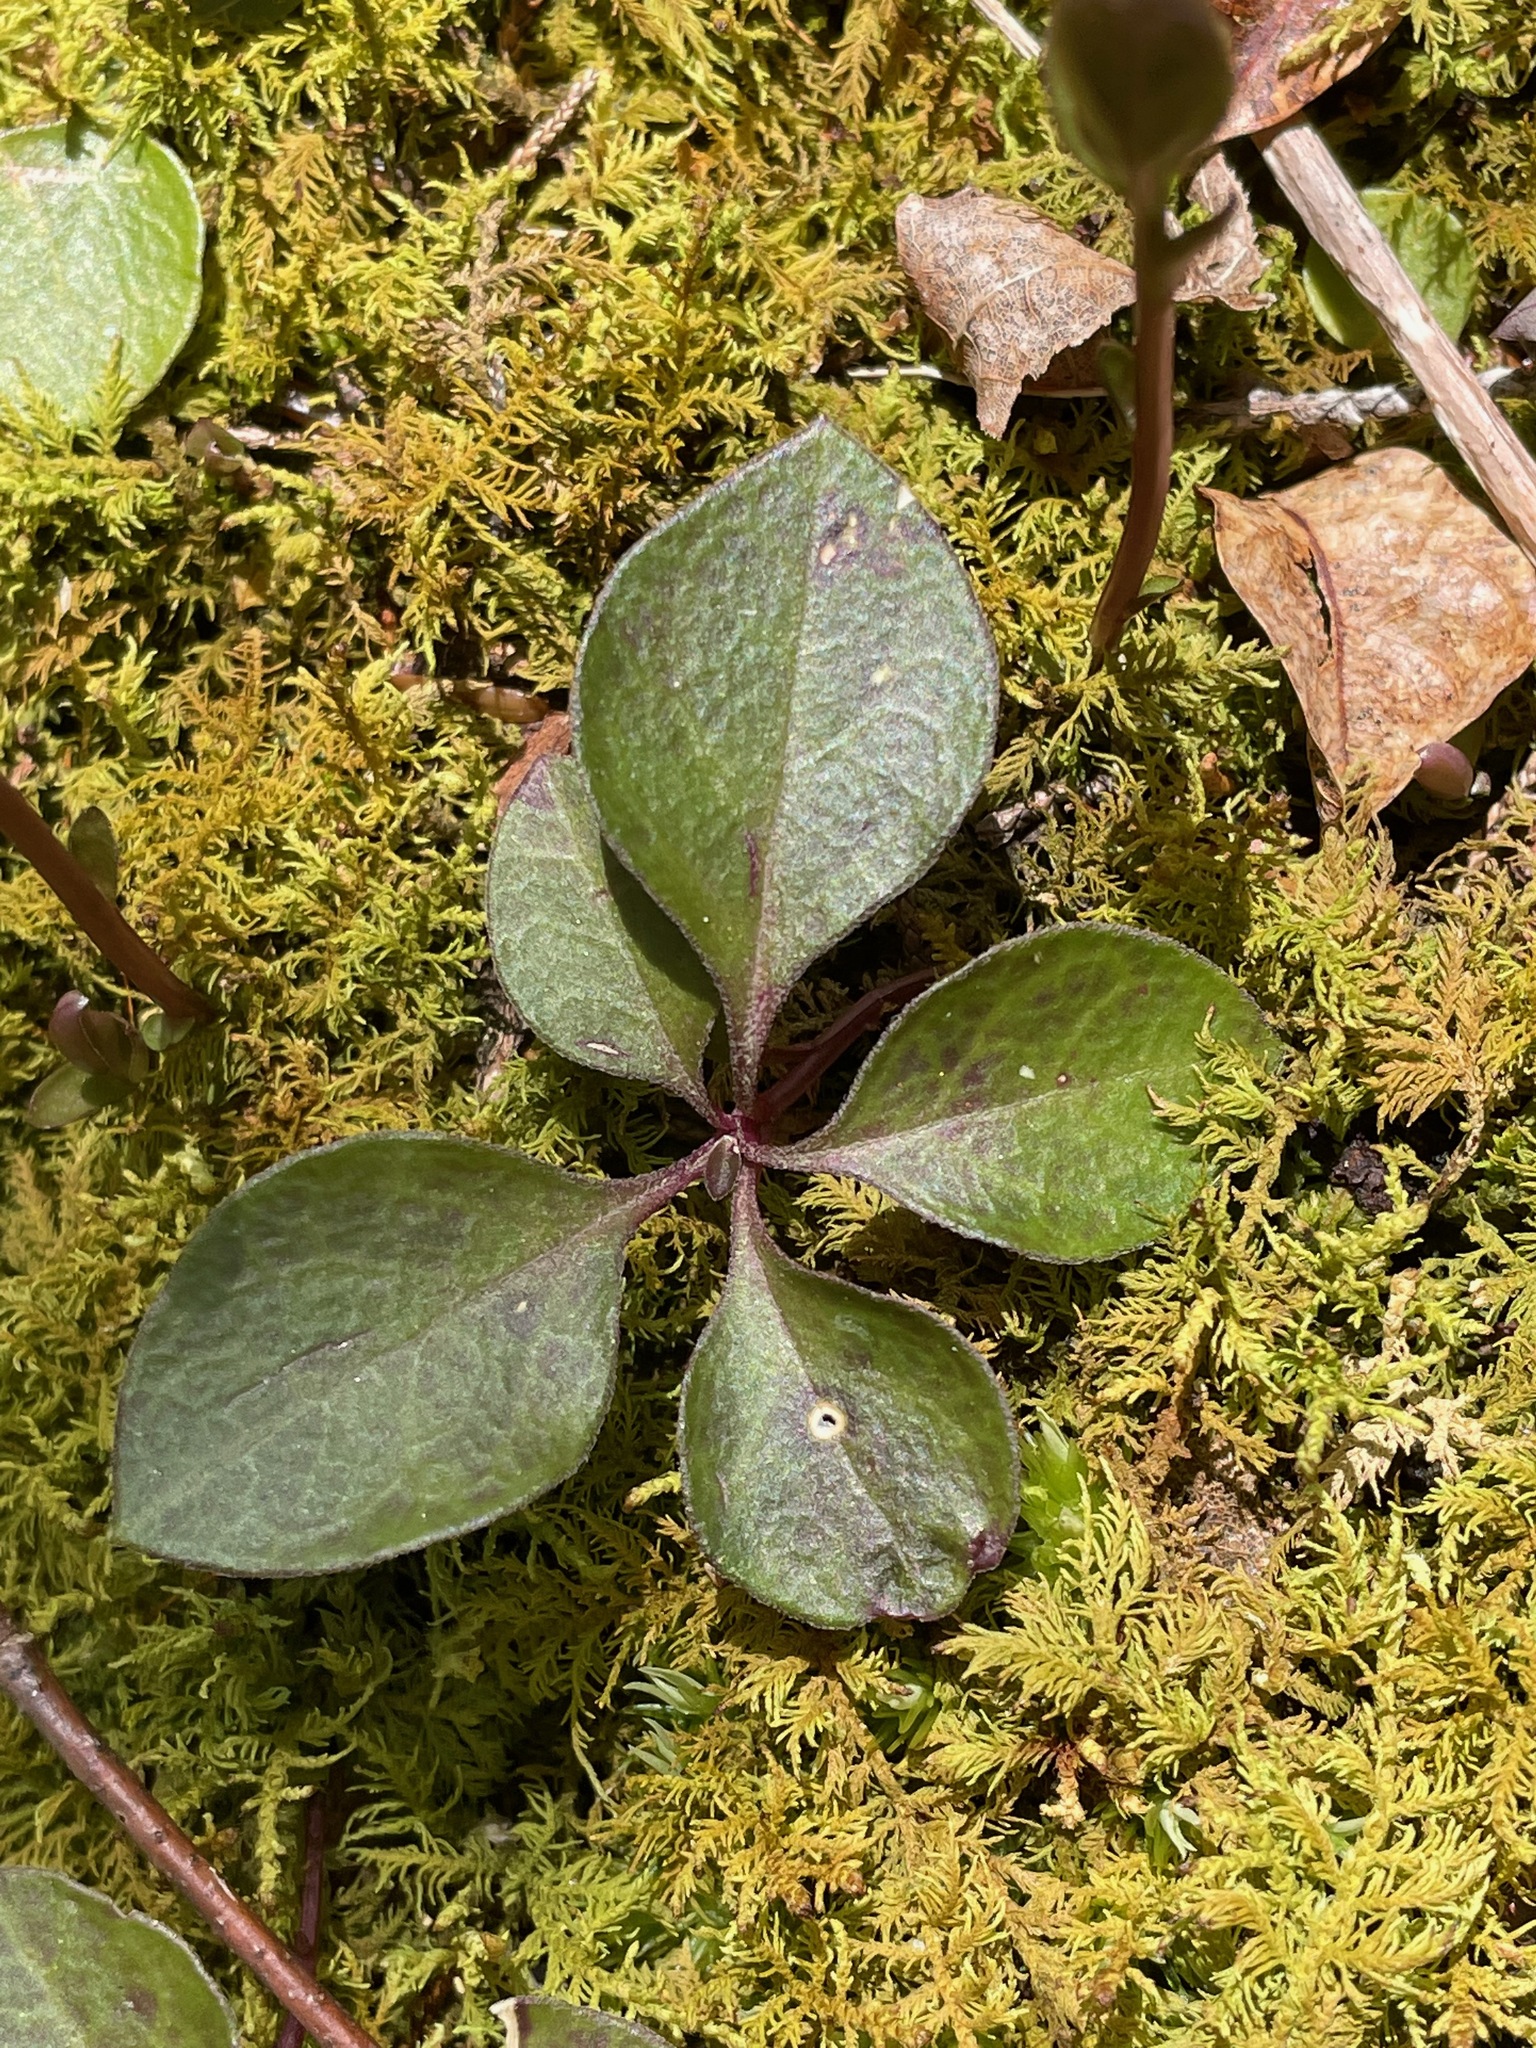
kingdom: Plantae
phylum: Tracheophyta
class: Magnoliopsida
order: Fabales
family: Polygalaceae
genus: Polygaloides
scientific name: Polygaloides paucifolia
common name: Bird-on-the-wing
